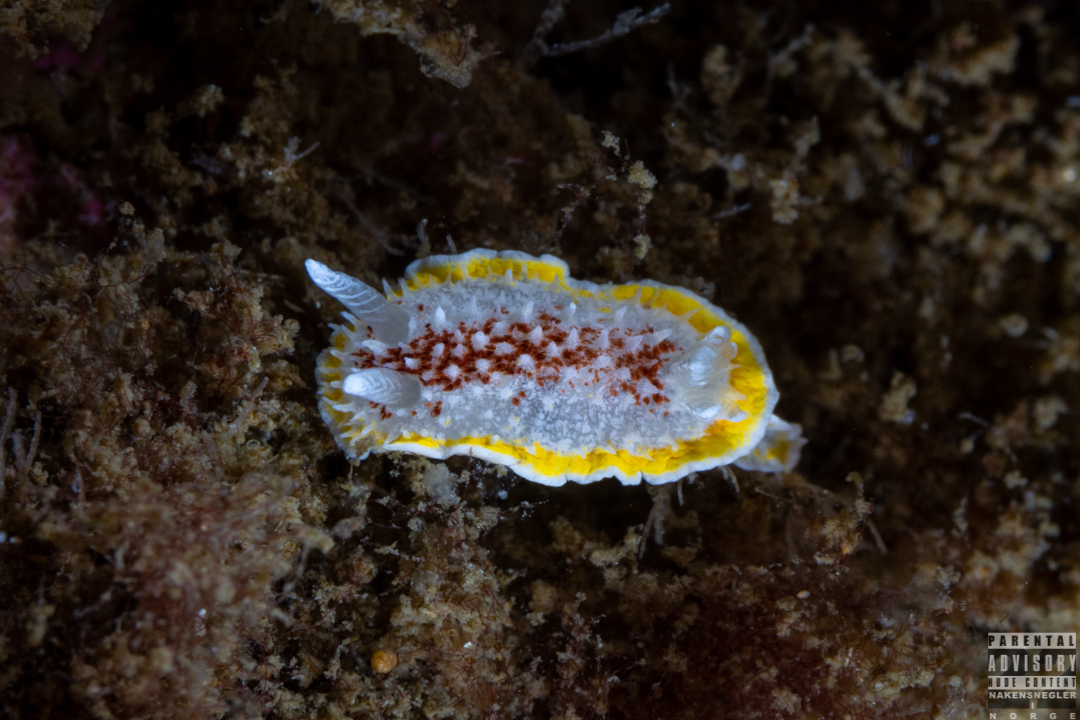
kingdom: Animalia
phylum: Mollusca
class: Gastropoda
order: Nudibranchia
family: Calycidorididae
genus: Diaphorodoris
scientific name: Diaphorodoris luteocincta
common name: Fried egg nudibranch
